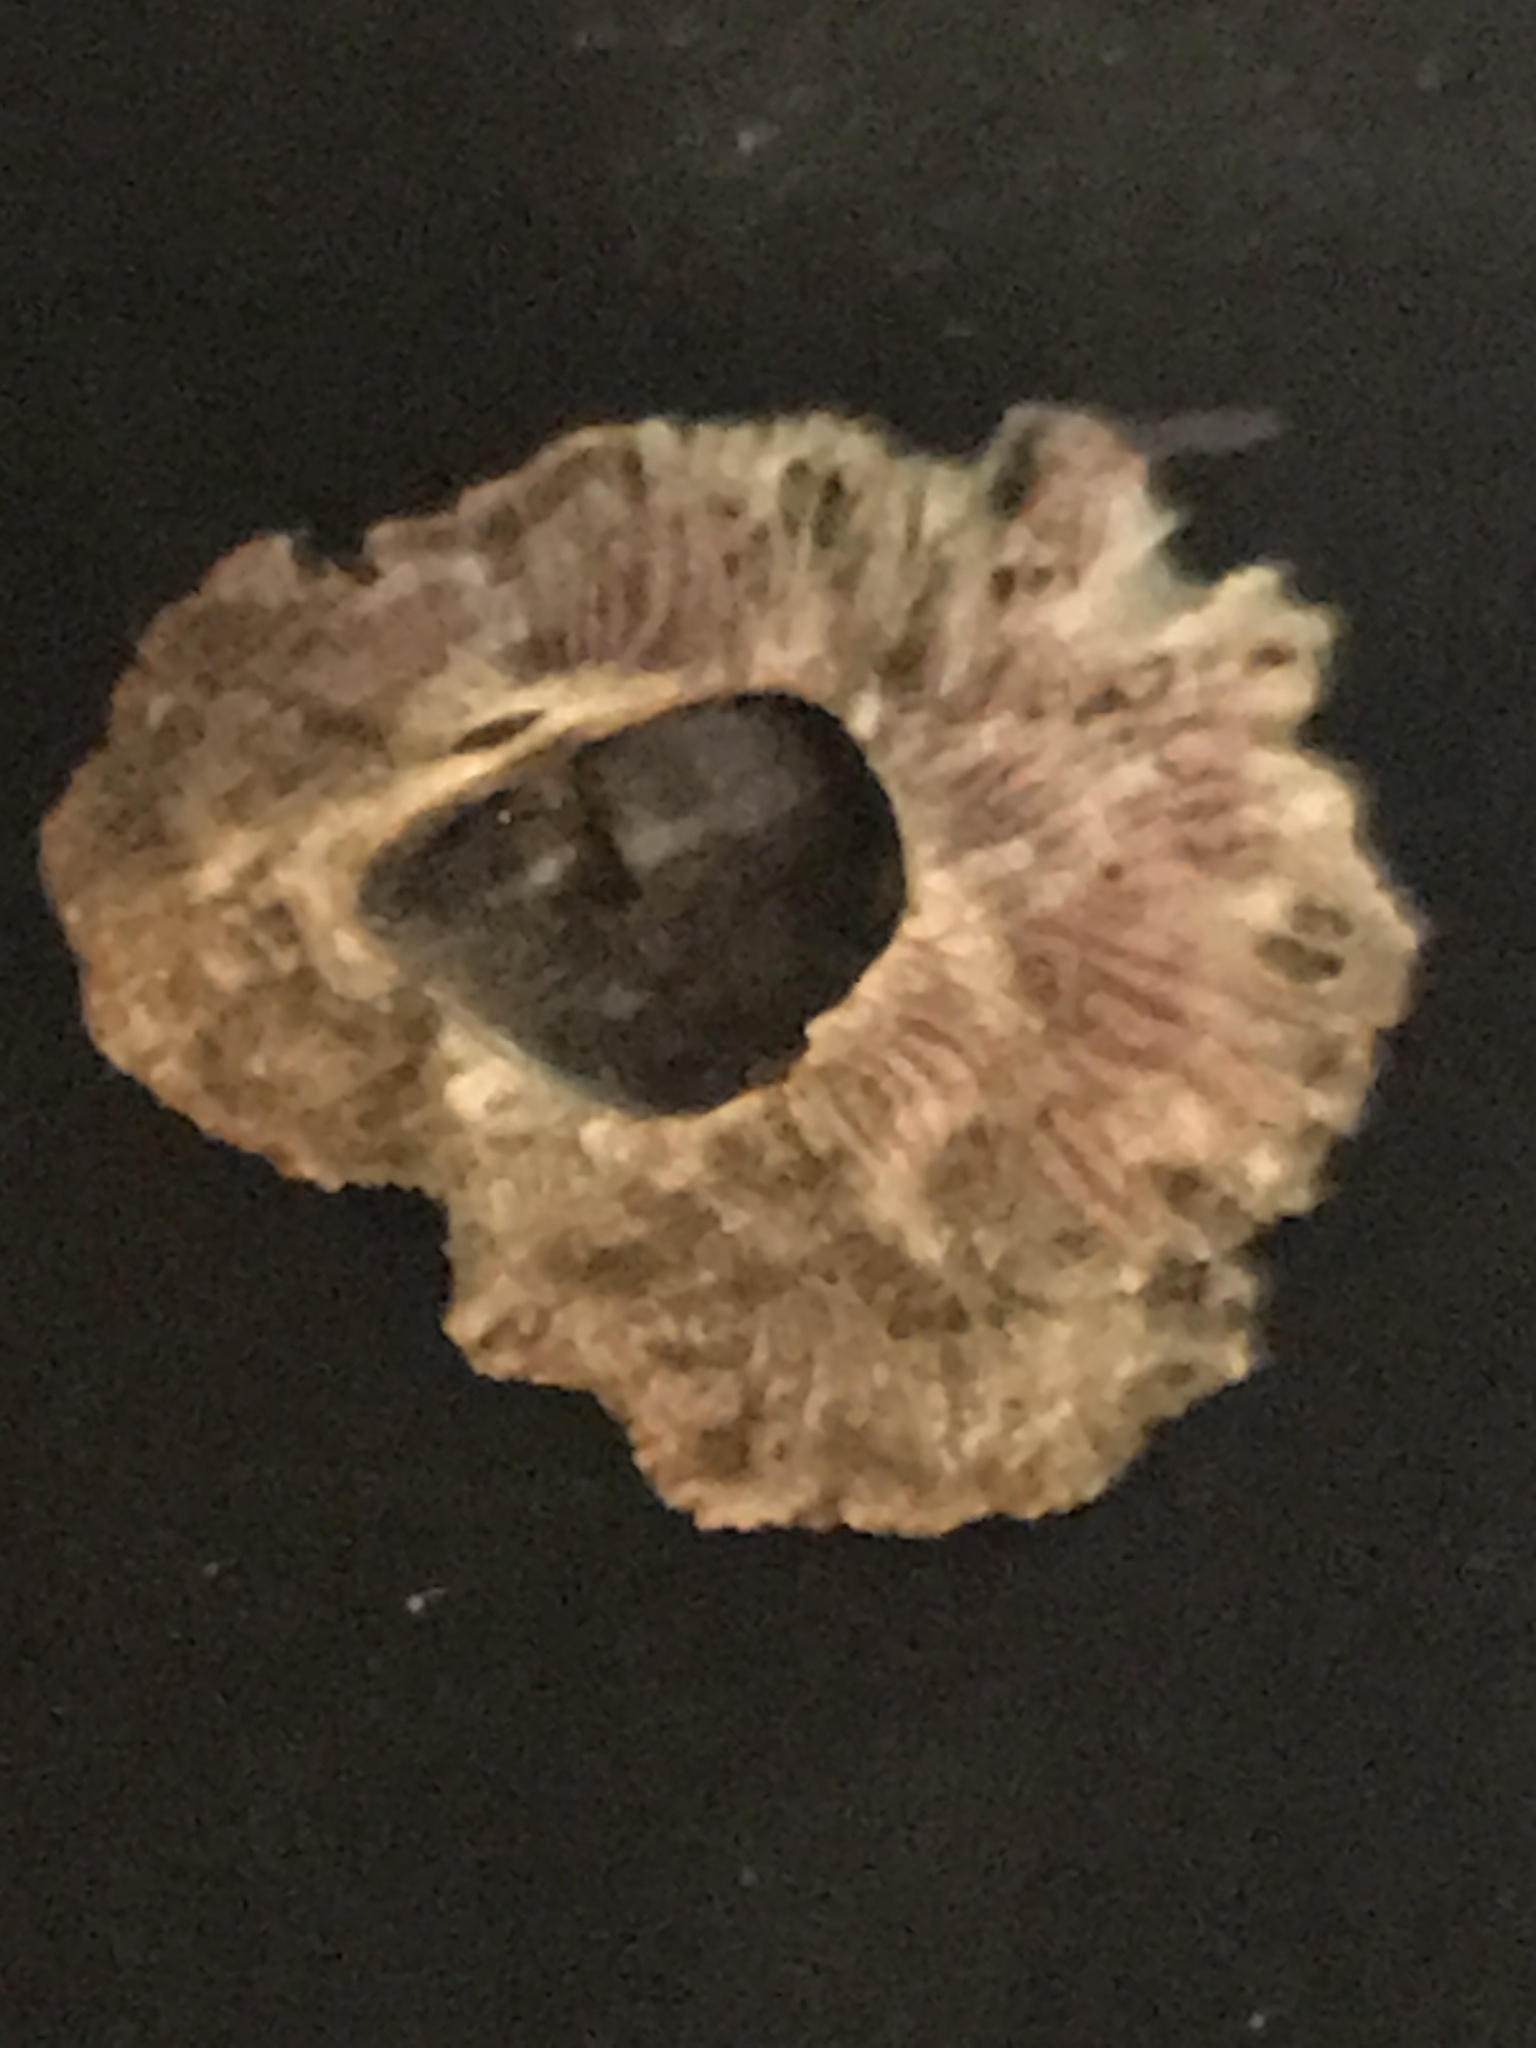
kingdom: Animalia
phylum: Arthropoda
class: Maxillopoda
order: Sessilia
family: Tetraclitidae
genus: Tetraclita
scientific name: Tetraclita rubescens
